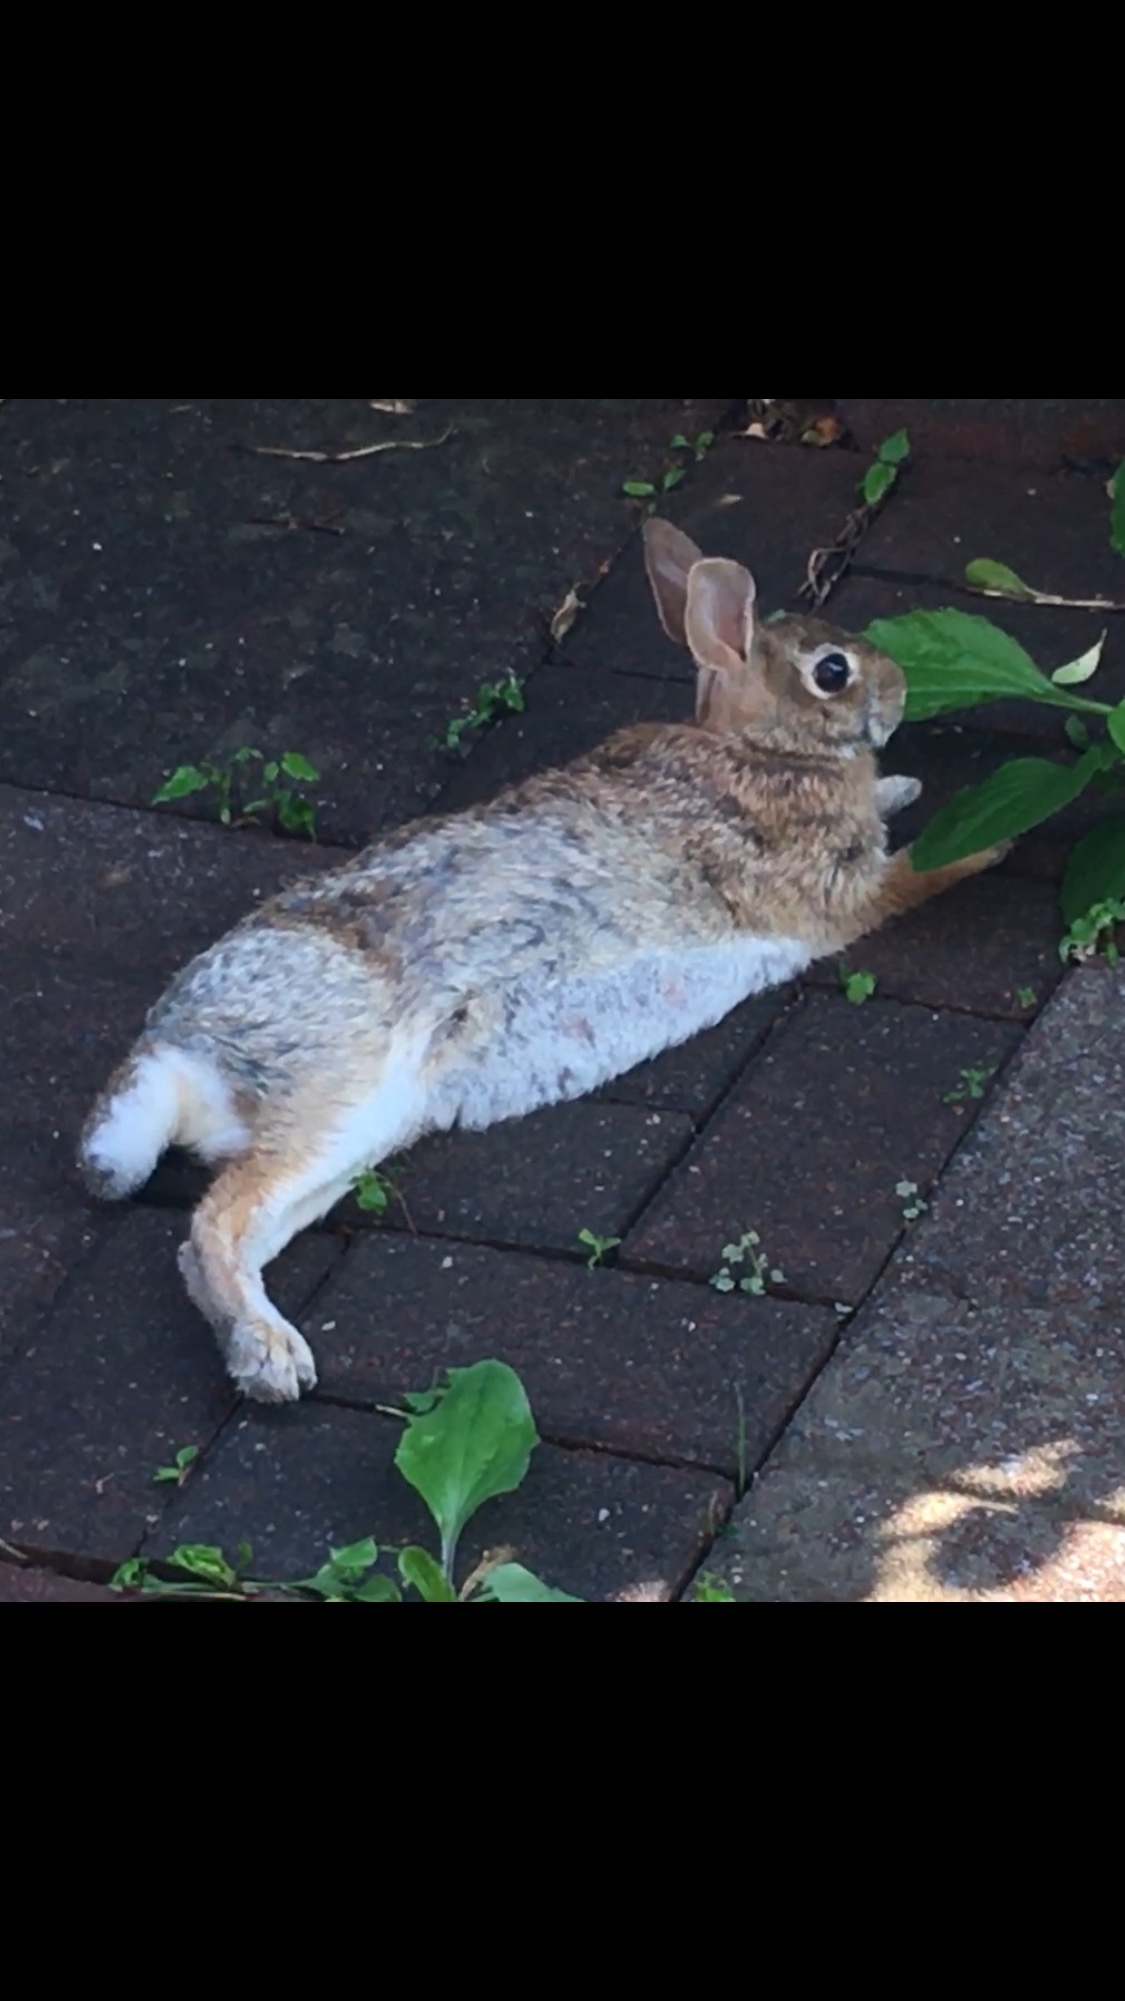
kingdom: Animalia
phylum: Chordata
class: Mammalia
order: Lagomorpha
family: Leporidae
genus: Sylvilagus
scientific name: Sylvilagus floridanus
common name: Eastern cottontail
